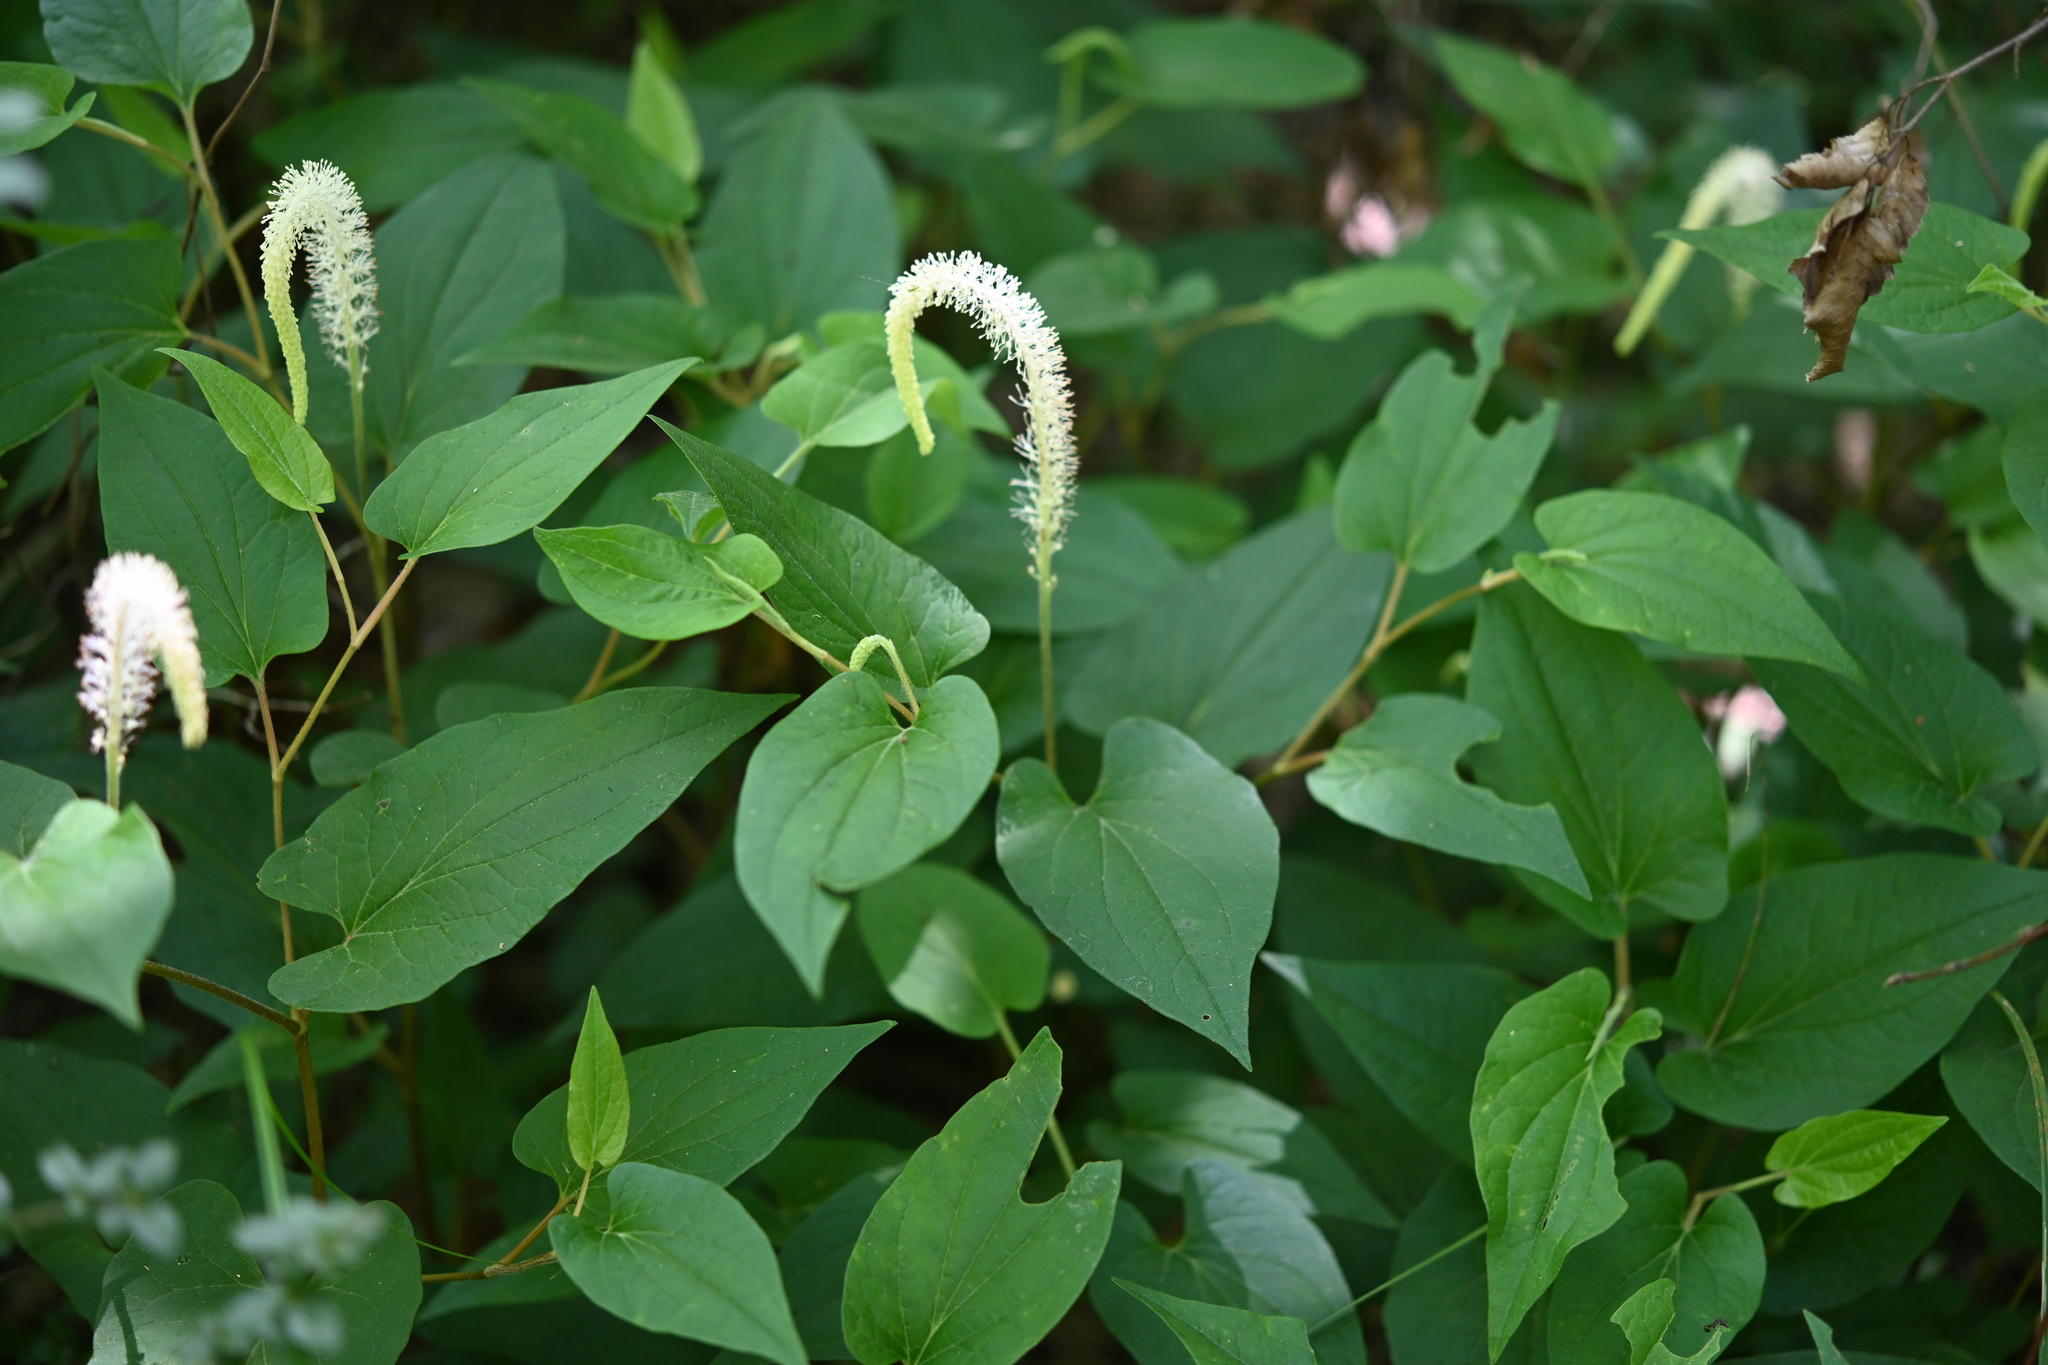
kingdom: Plantae
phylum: Tracheophyta
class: Magnoliopsida
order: Piperales
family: Saururaceae
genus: Saururus
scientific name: Saururus cernuus
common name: Lizard's-tail
